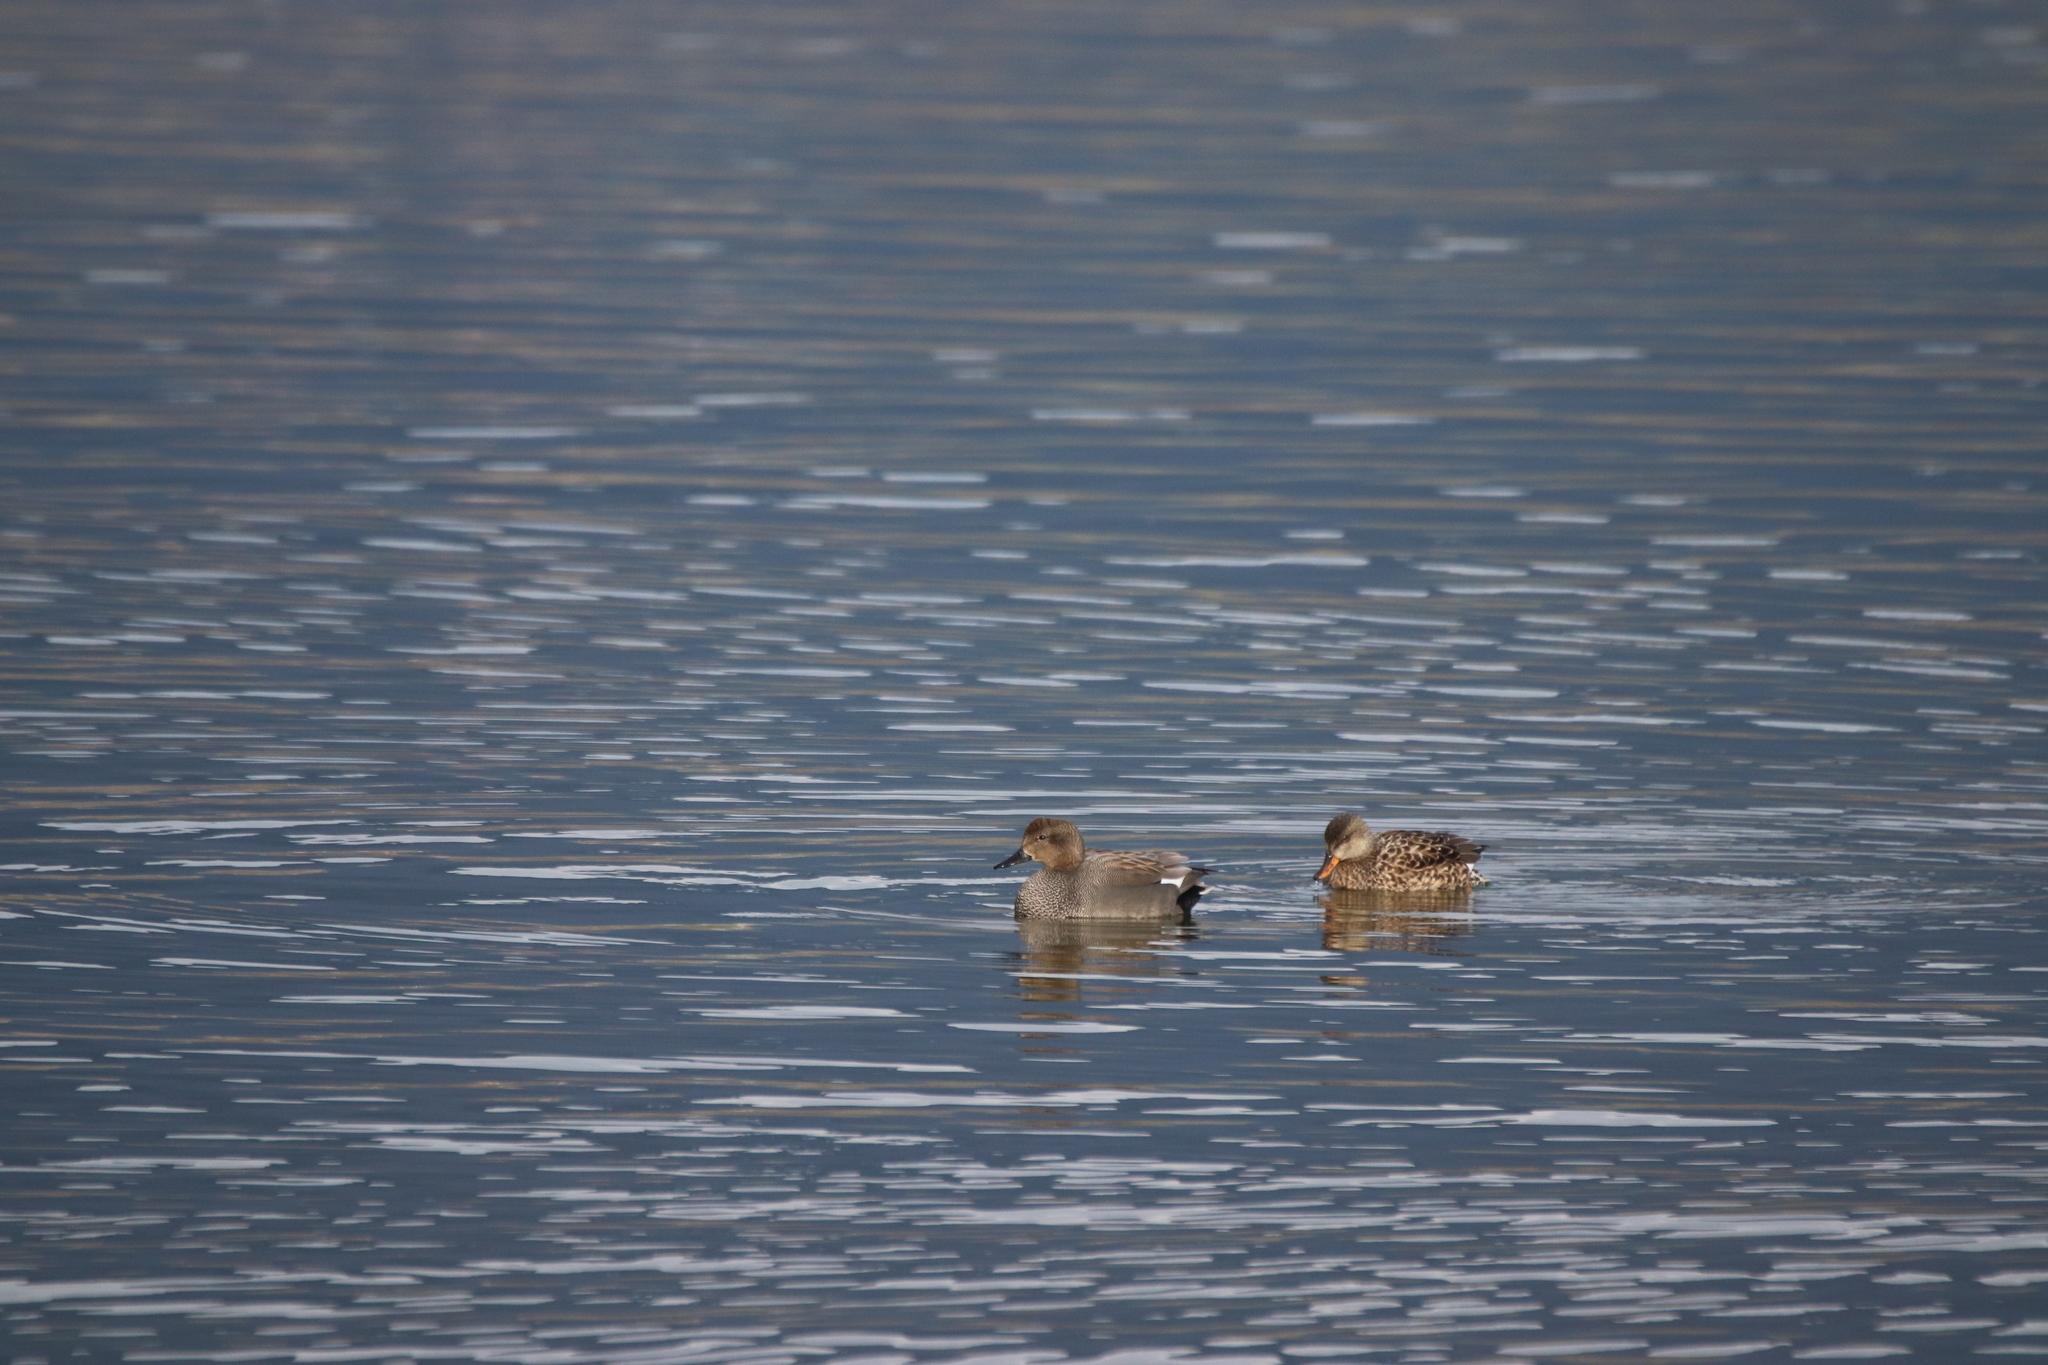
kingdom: Animalia
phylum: Chordata
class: Aves
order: Anseriformes
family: Anatidae
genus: Mareca
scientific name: Mareca strepera
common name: Gadwall
